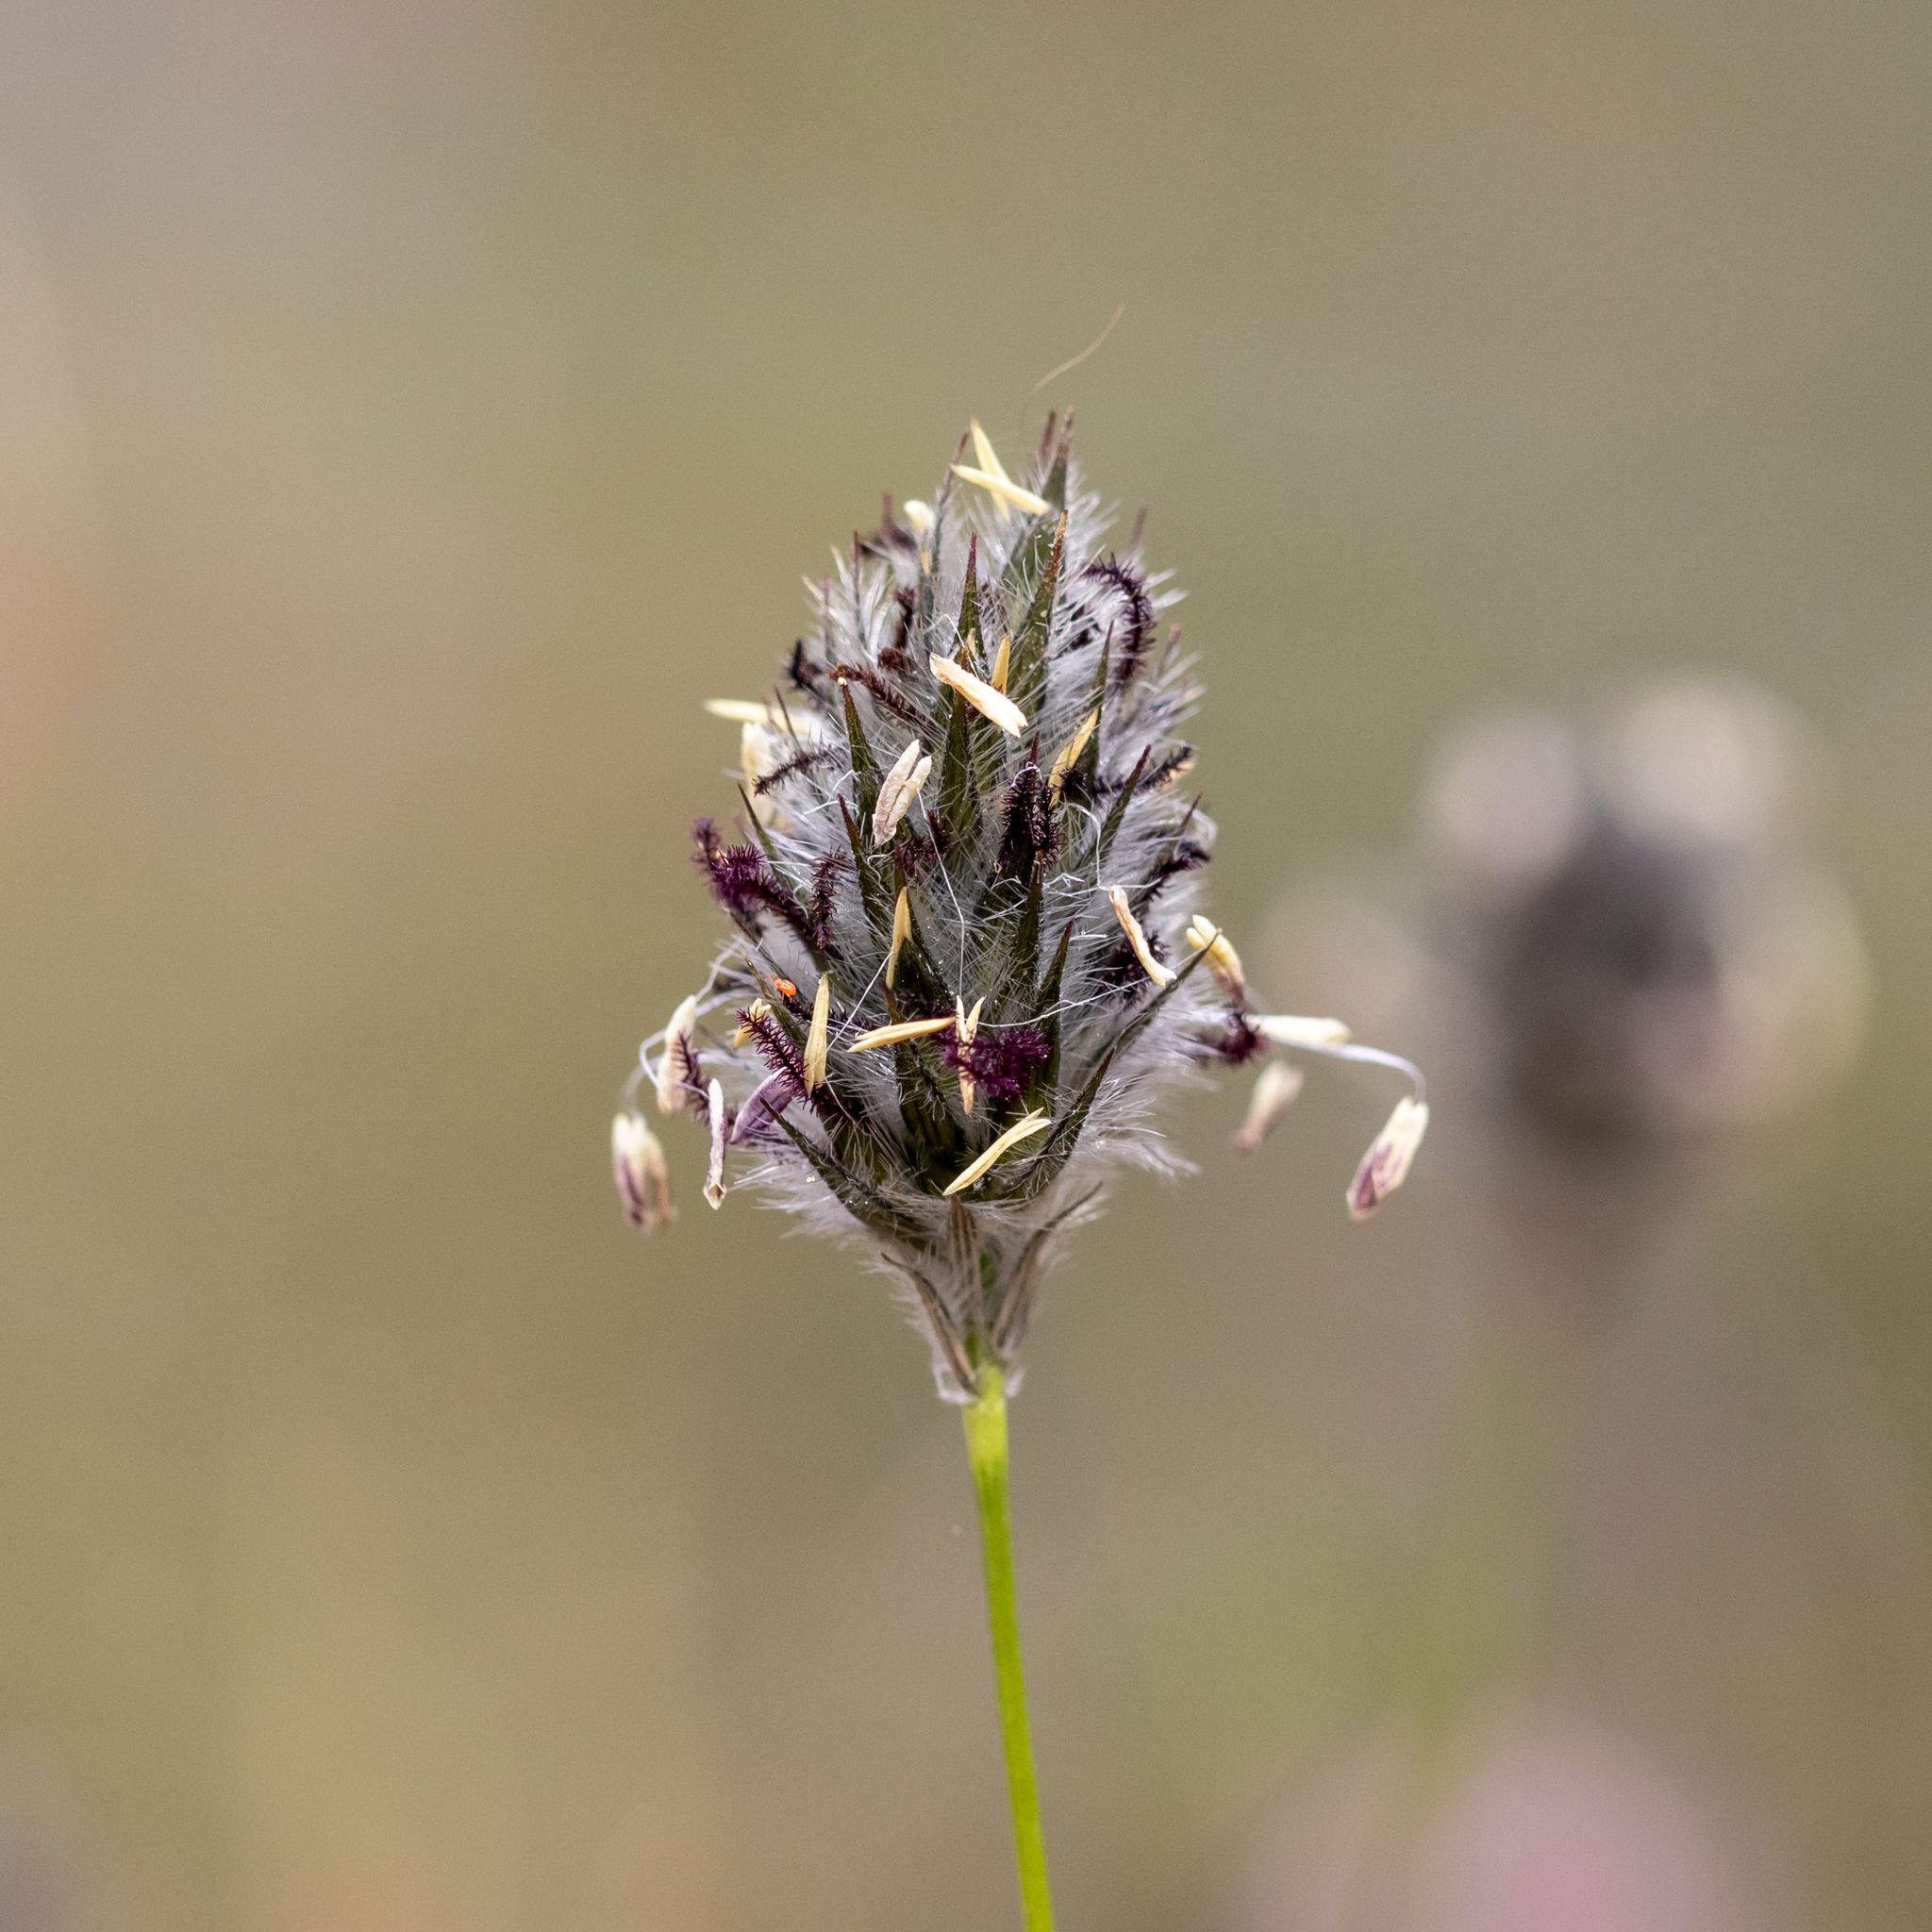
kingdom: Plantae
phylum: Tracheophyta
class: Liliopsida
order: Poales
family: Poaceae
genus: Neurachne
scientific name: Neurachne alopecuroidea
